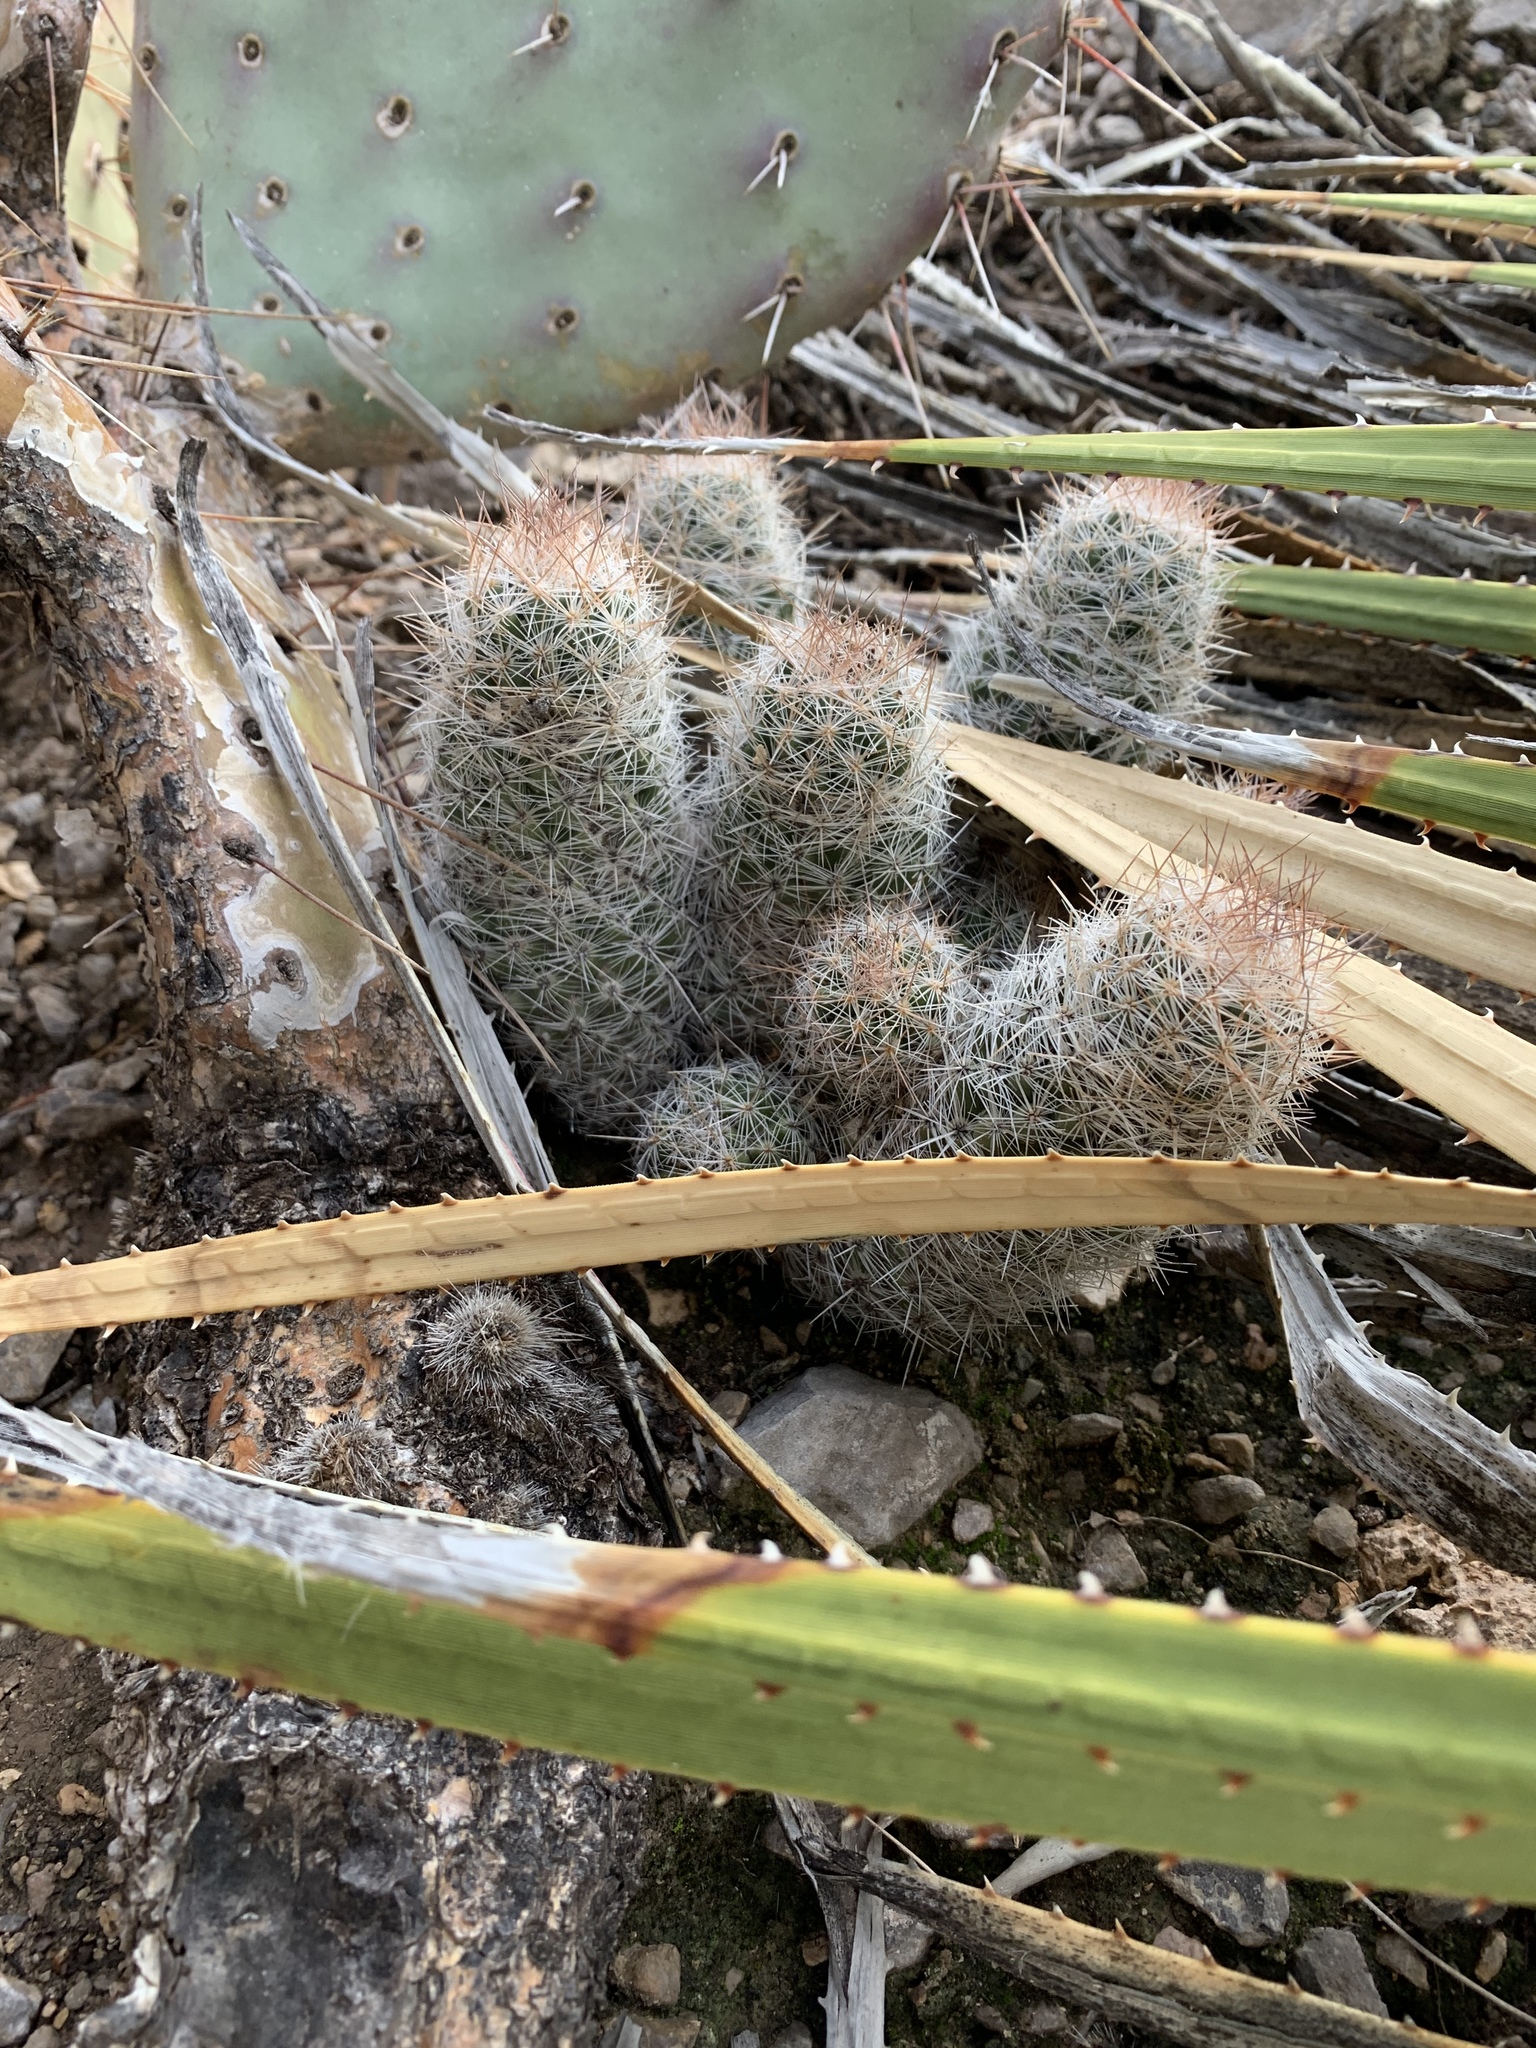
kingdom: Plantae
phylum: Tracheophyta
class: Magnoliopsida
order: Caryophyllales
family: Cactaceae
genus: Pelecyphora
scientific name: Pelecyphora tuberculosa
